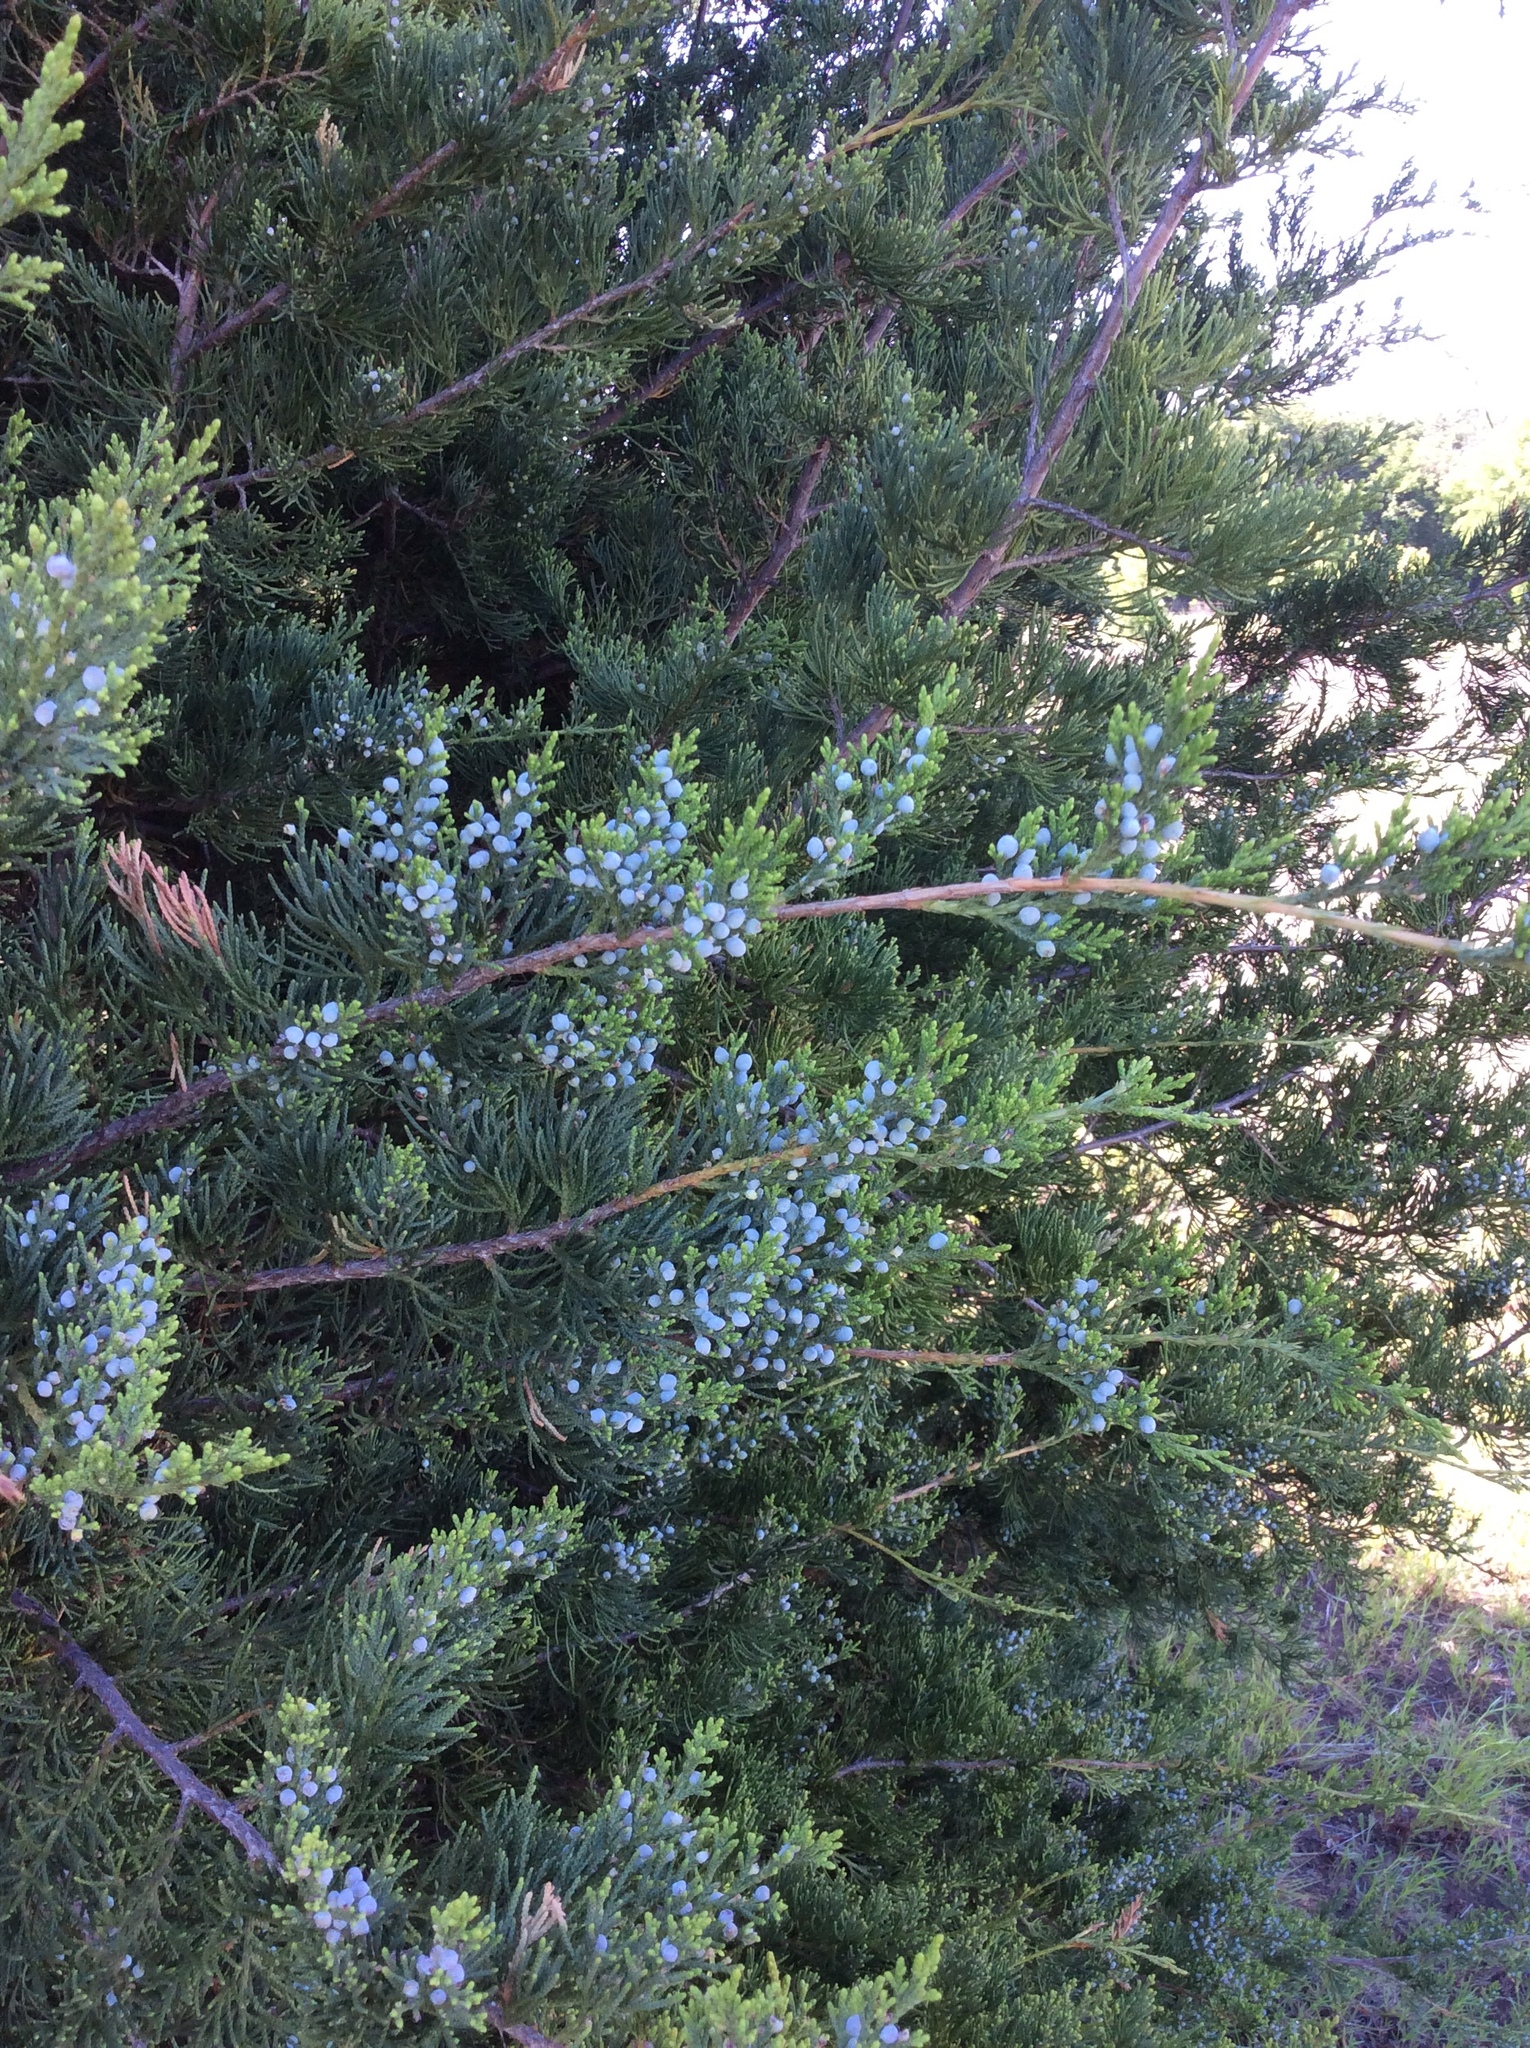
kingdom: Plantae
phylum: Tracheophyta
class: Pinopsida
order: Pinales
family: Cupressaceae
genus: Juniperus
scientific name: Juniperus ashei
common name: Mexican juniper
